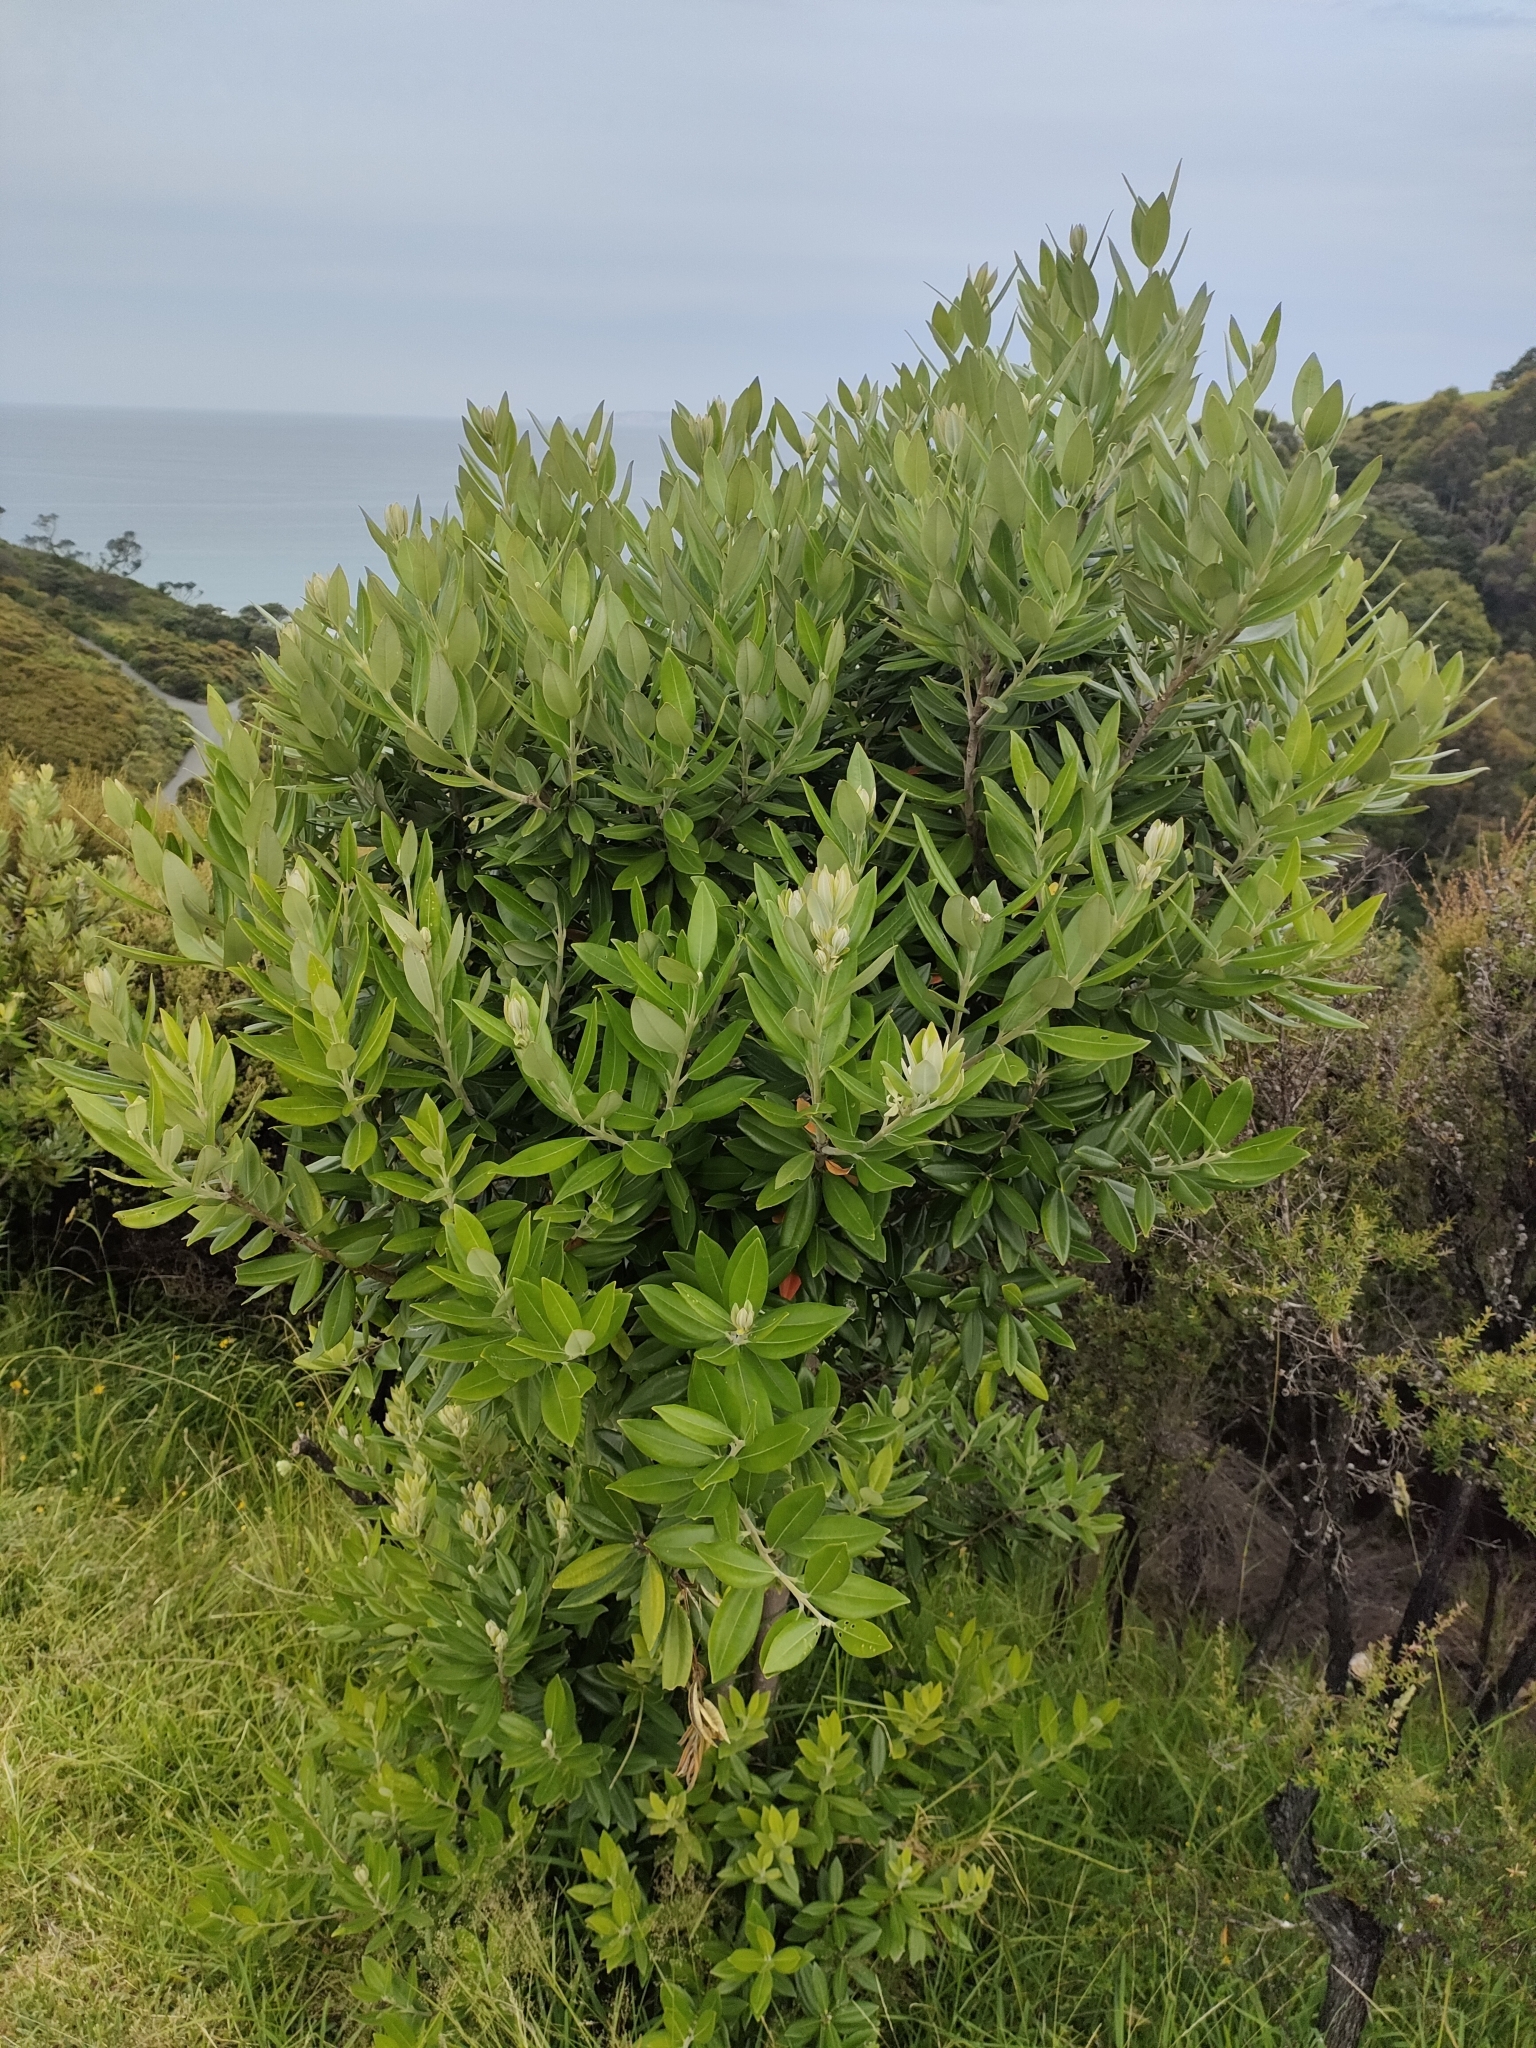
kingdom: Plantae
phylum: Tracheophyta
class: Magnoliopsida
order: Myrtales
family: Myrtaceae
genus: Metrosideros
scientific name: Metrosideros excelsa
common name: New zealand christmastree
